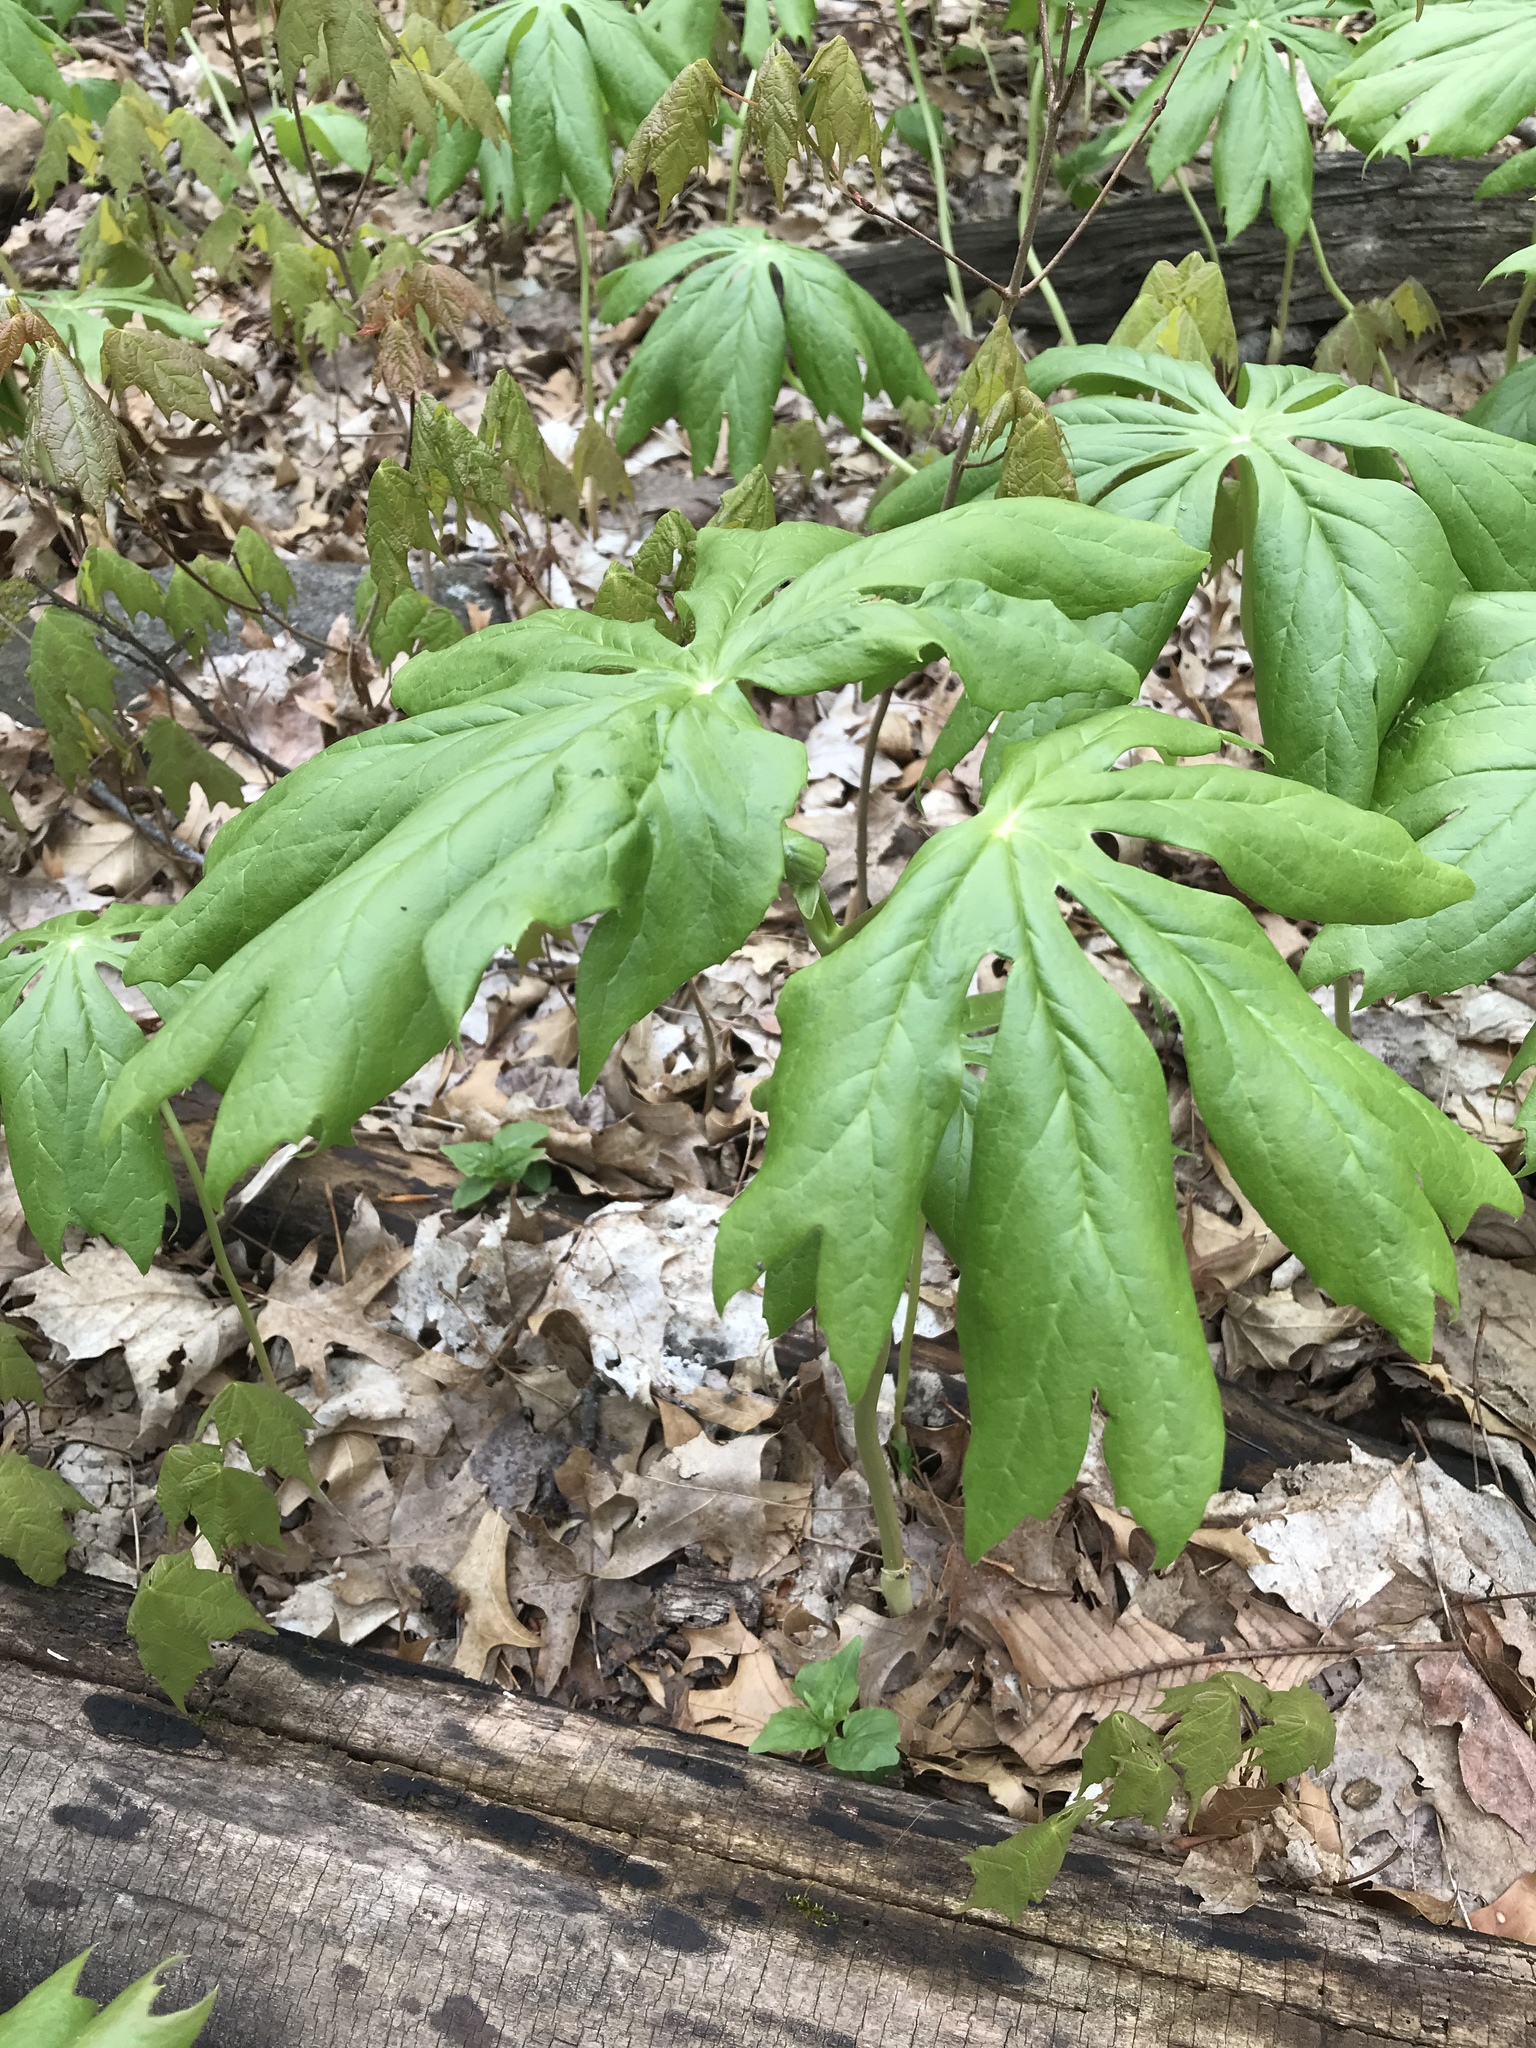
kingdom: Plantae
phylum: Tracheophyta
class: Magnoliopsida
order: Ranunculales
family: Berberidaceae
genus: Podophyllum
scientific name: Podophyllum peltatum
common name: Wild mandrake
